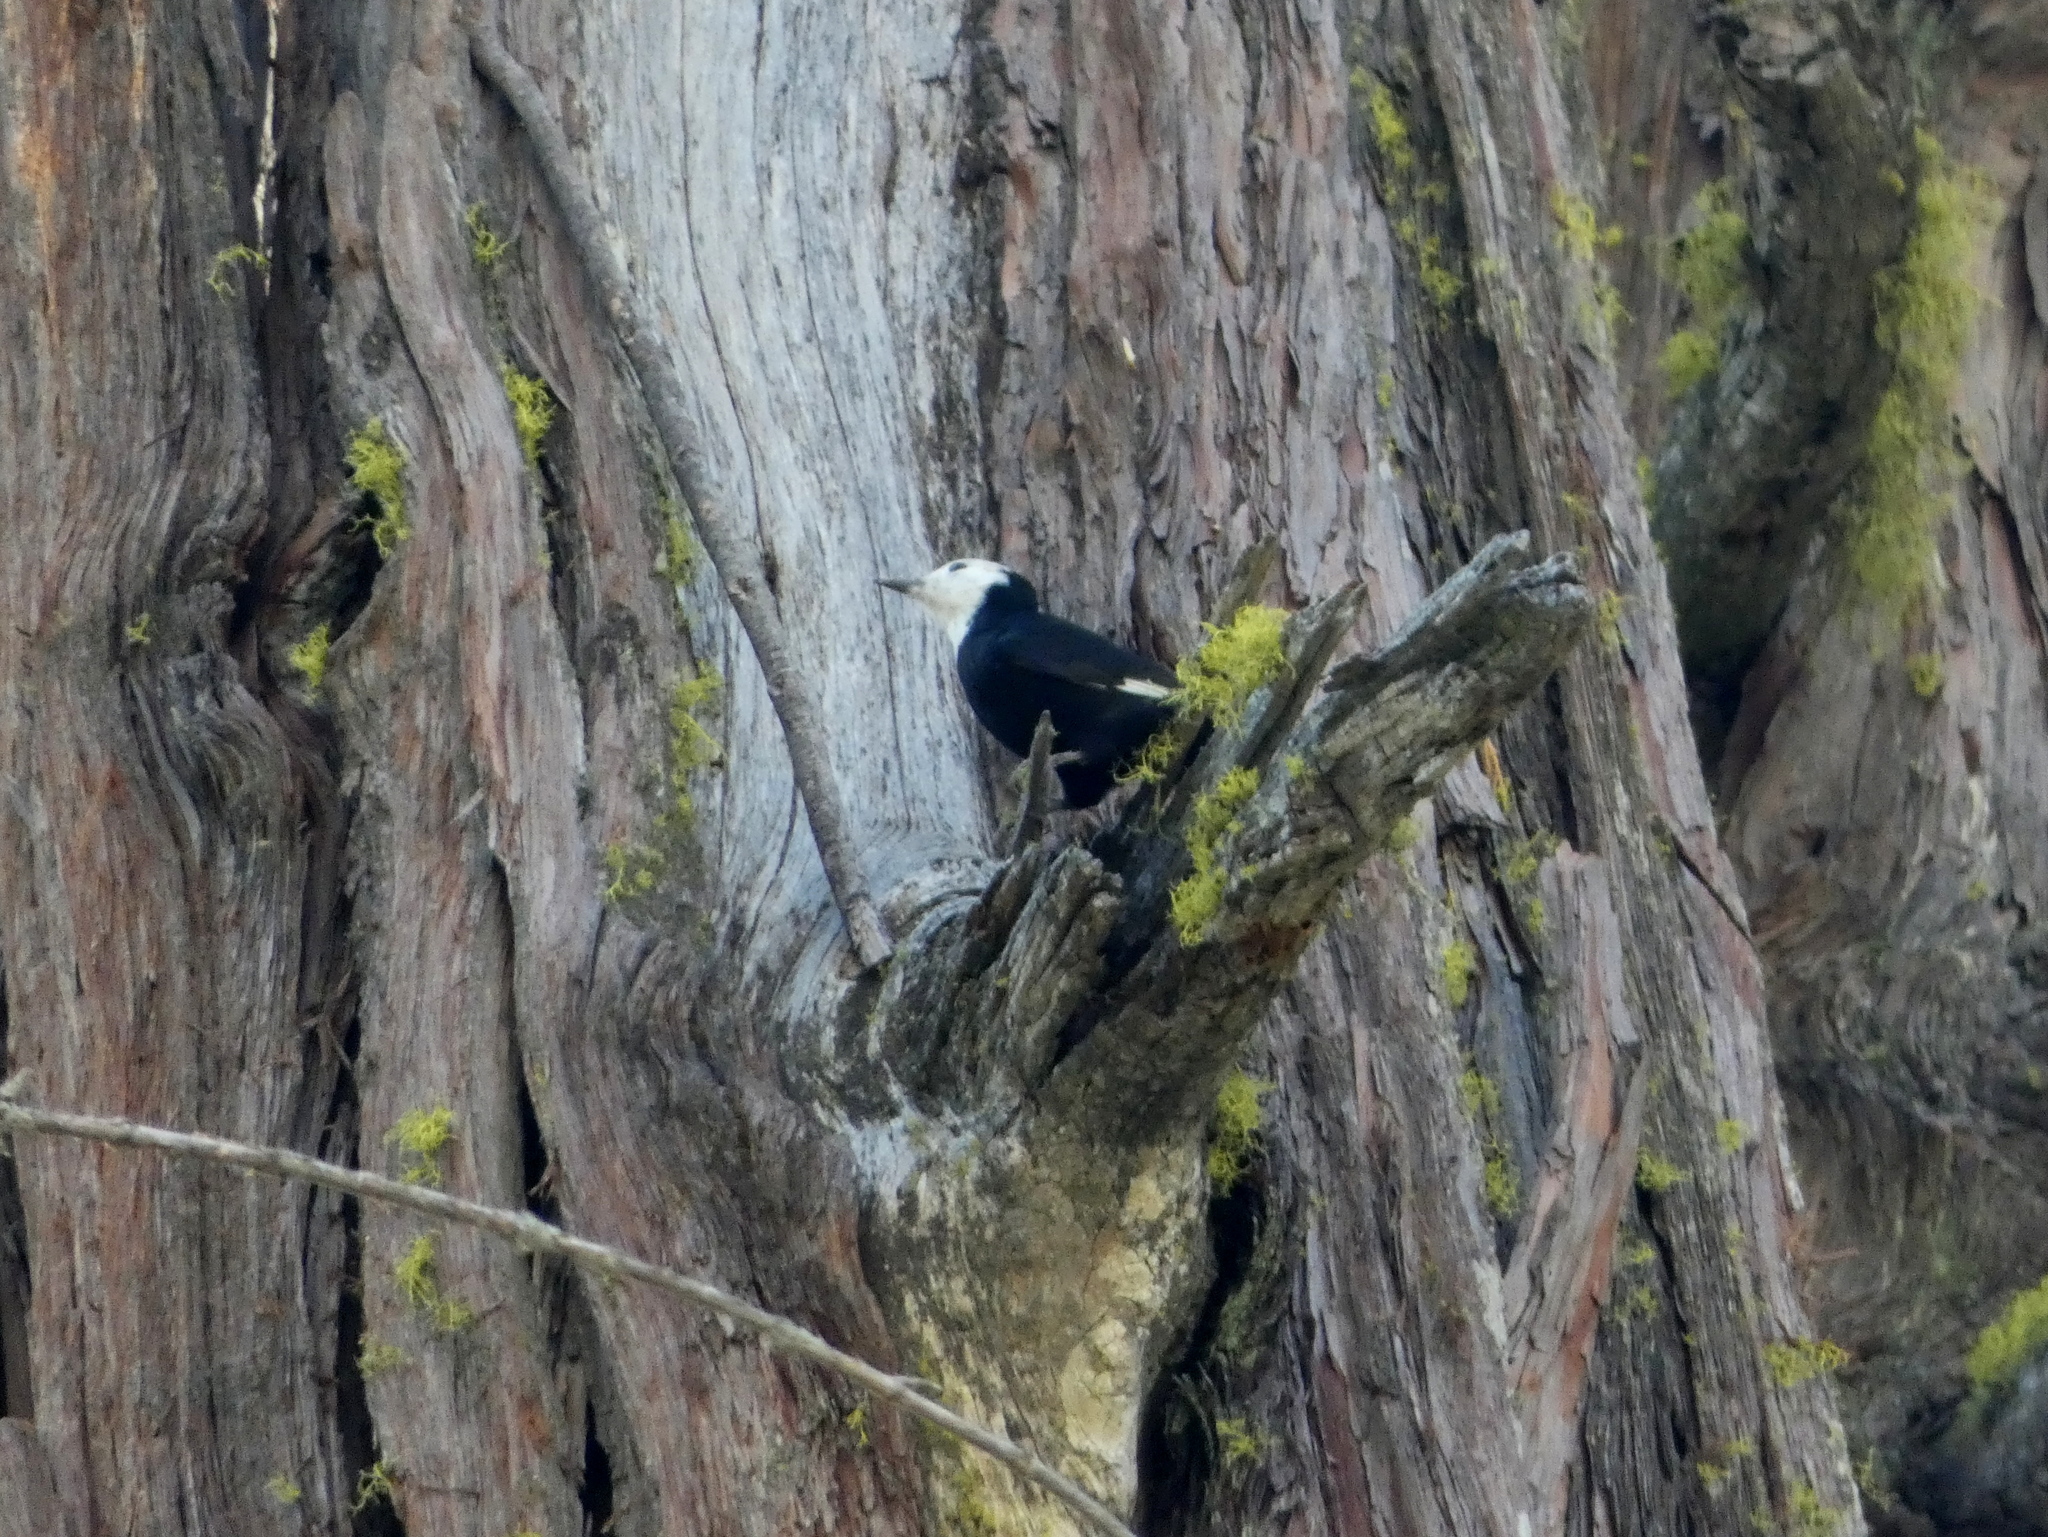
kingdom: Animalia
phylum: Chordata
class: Aves
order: Piciformes
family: Picidae
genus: Leuconotopicus
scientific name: Leuconotopicus albolarvatus
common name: White-headed woodpecker
